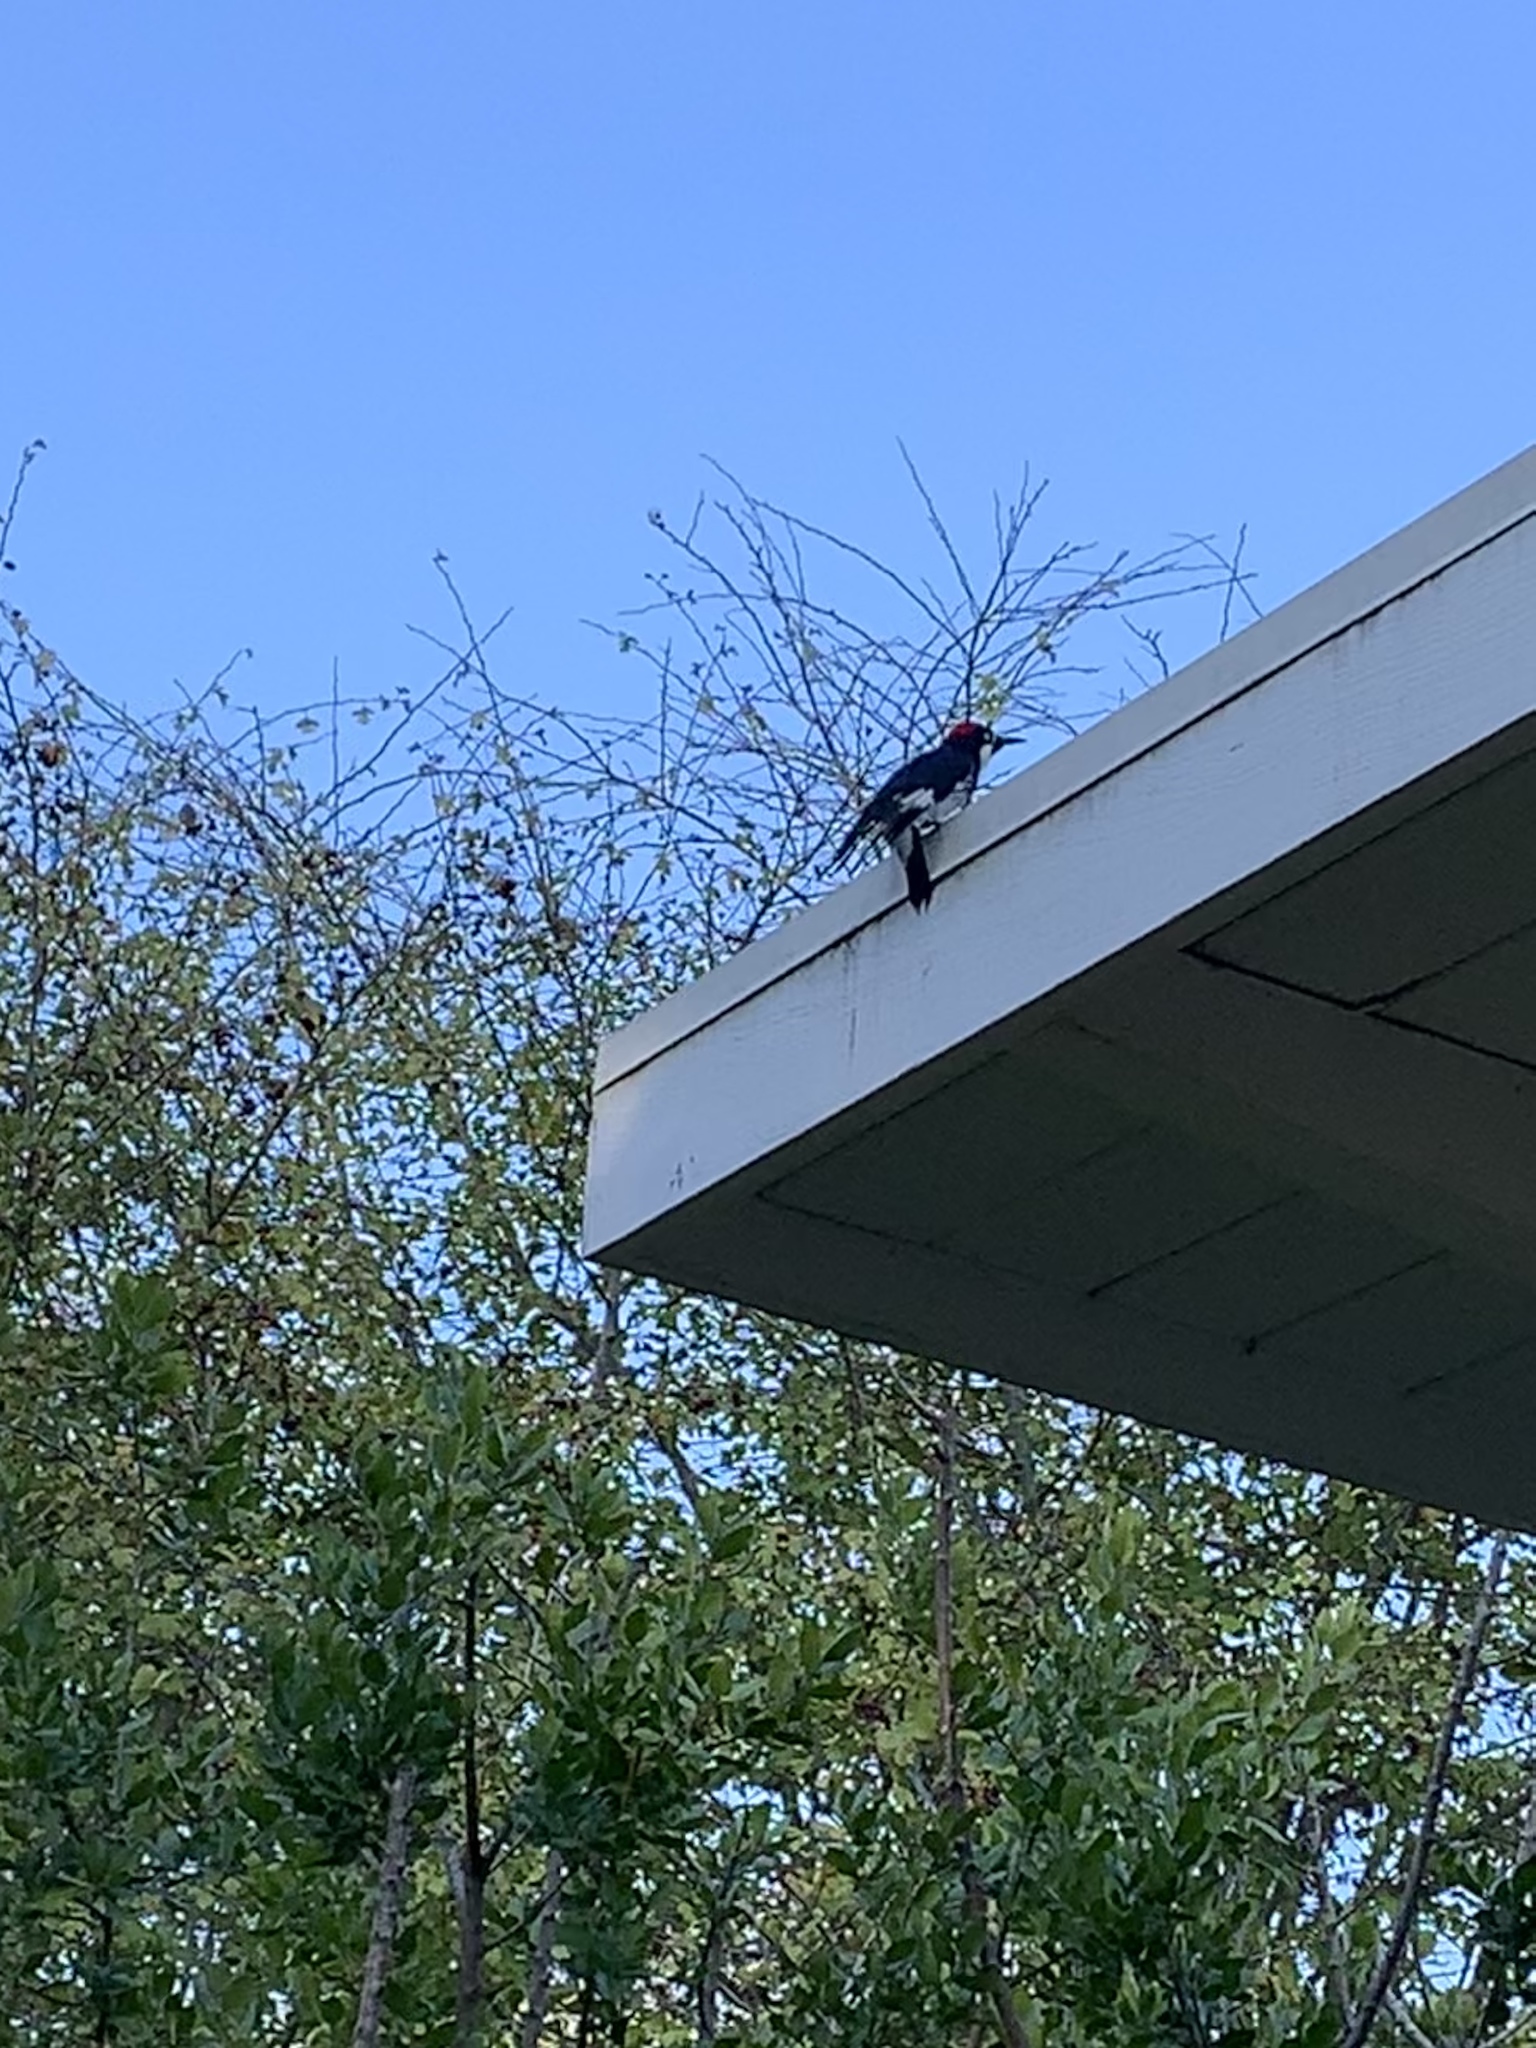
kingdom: Animalia
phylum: Chordata
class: Aves
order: Piciformes
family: Picidae
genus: Melanerpes
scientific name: Melanerpes formicivorus
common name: Acorn woodpecker
